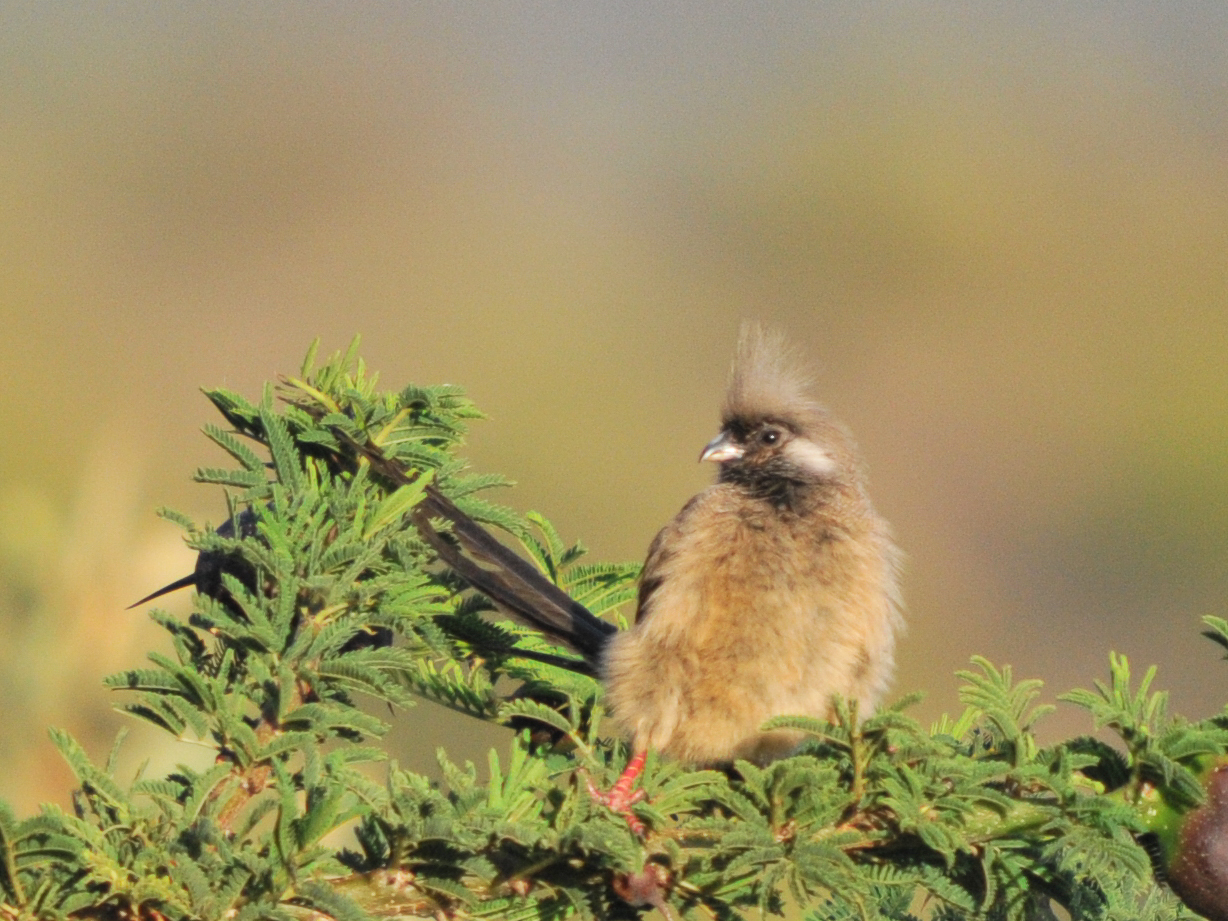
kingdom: Animalia
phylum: Chordata
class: Aves
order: Coliiformes
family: Coliidae
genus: Colius
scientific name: Colius striatus
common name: Speckled mousebird
